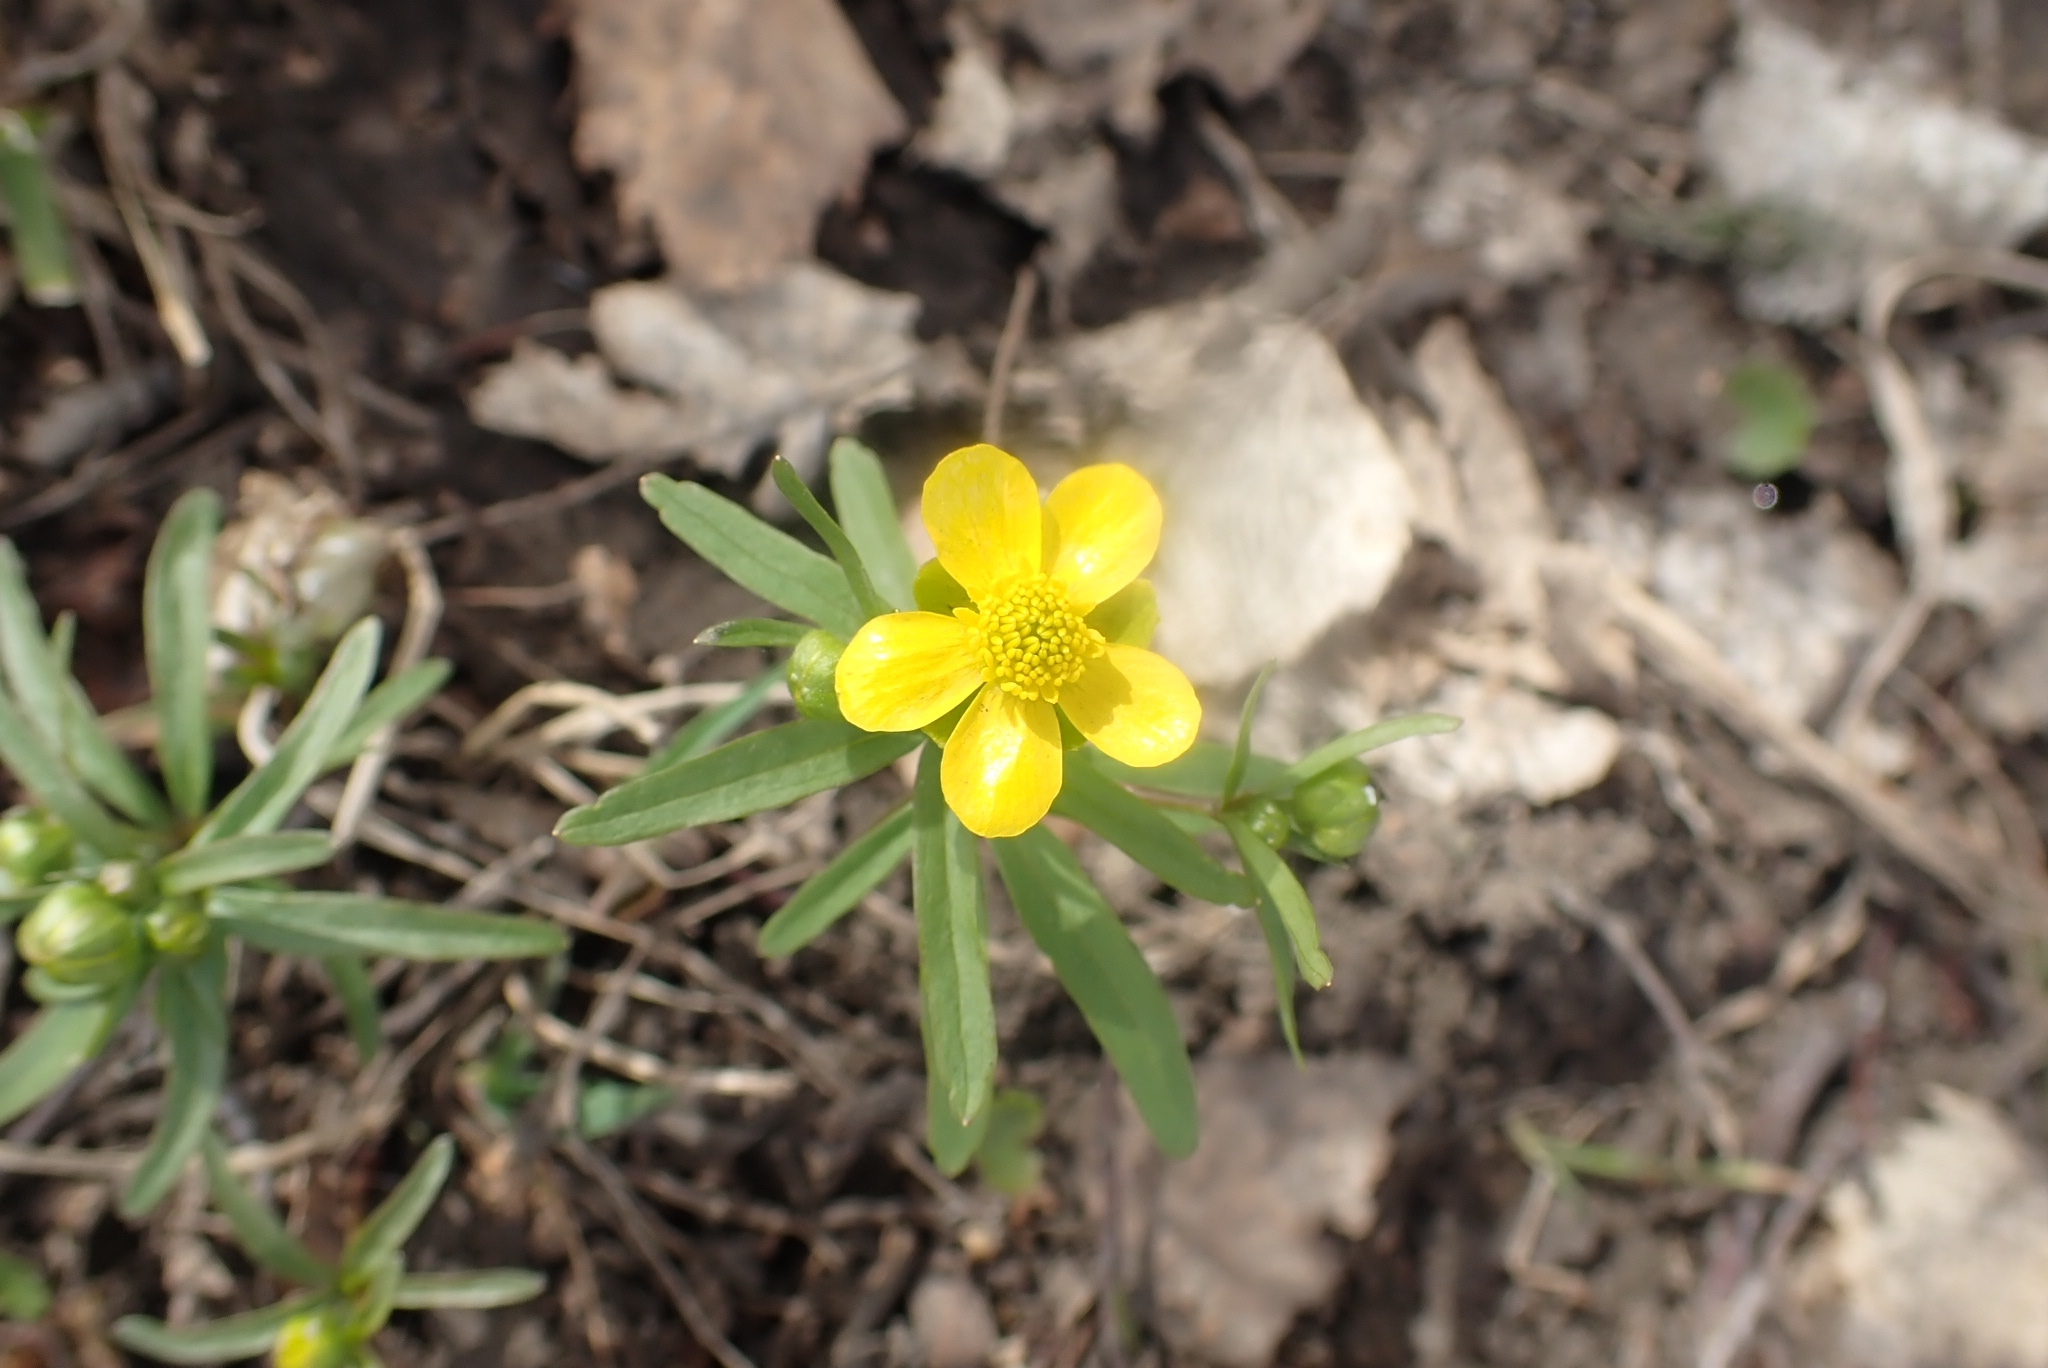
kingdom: Plantae
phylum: Tracheophyta
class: Magnoliopsida
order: Ranunculales
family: Ranunculaceae
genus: Ranunculus
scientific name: Ranunculus monophyllus
